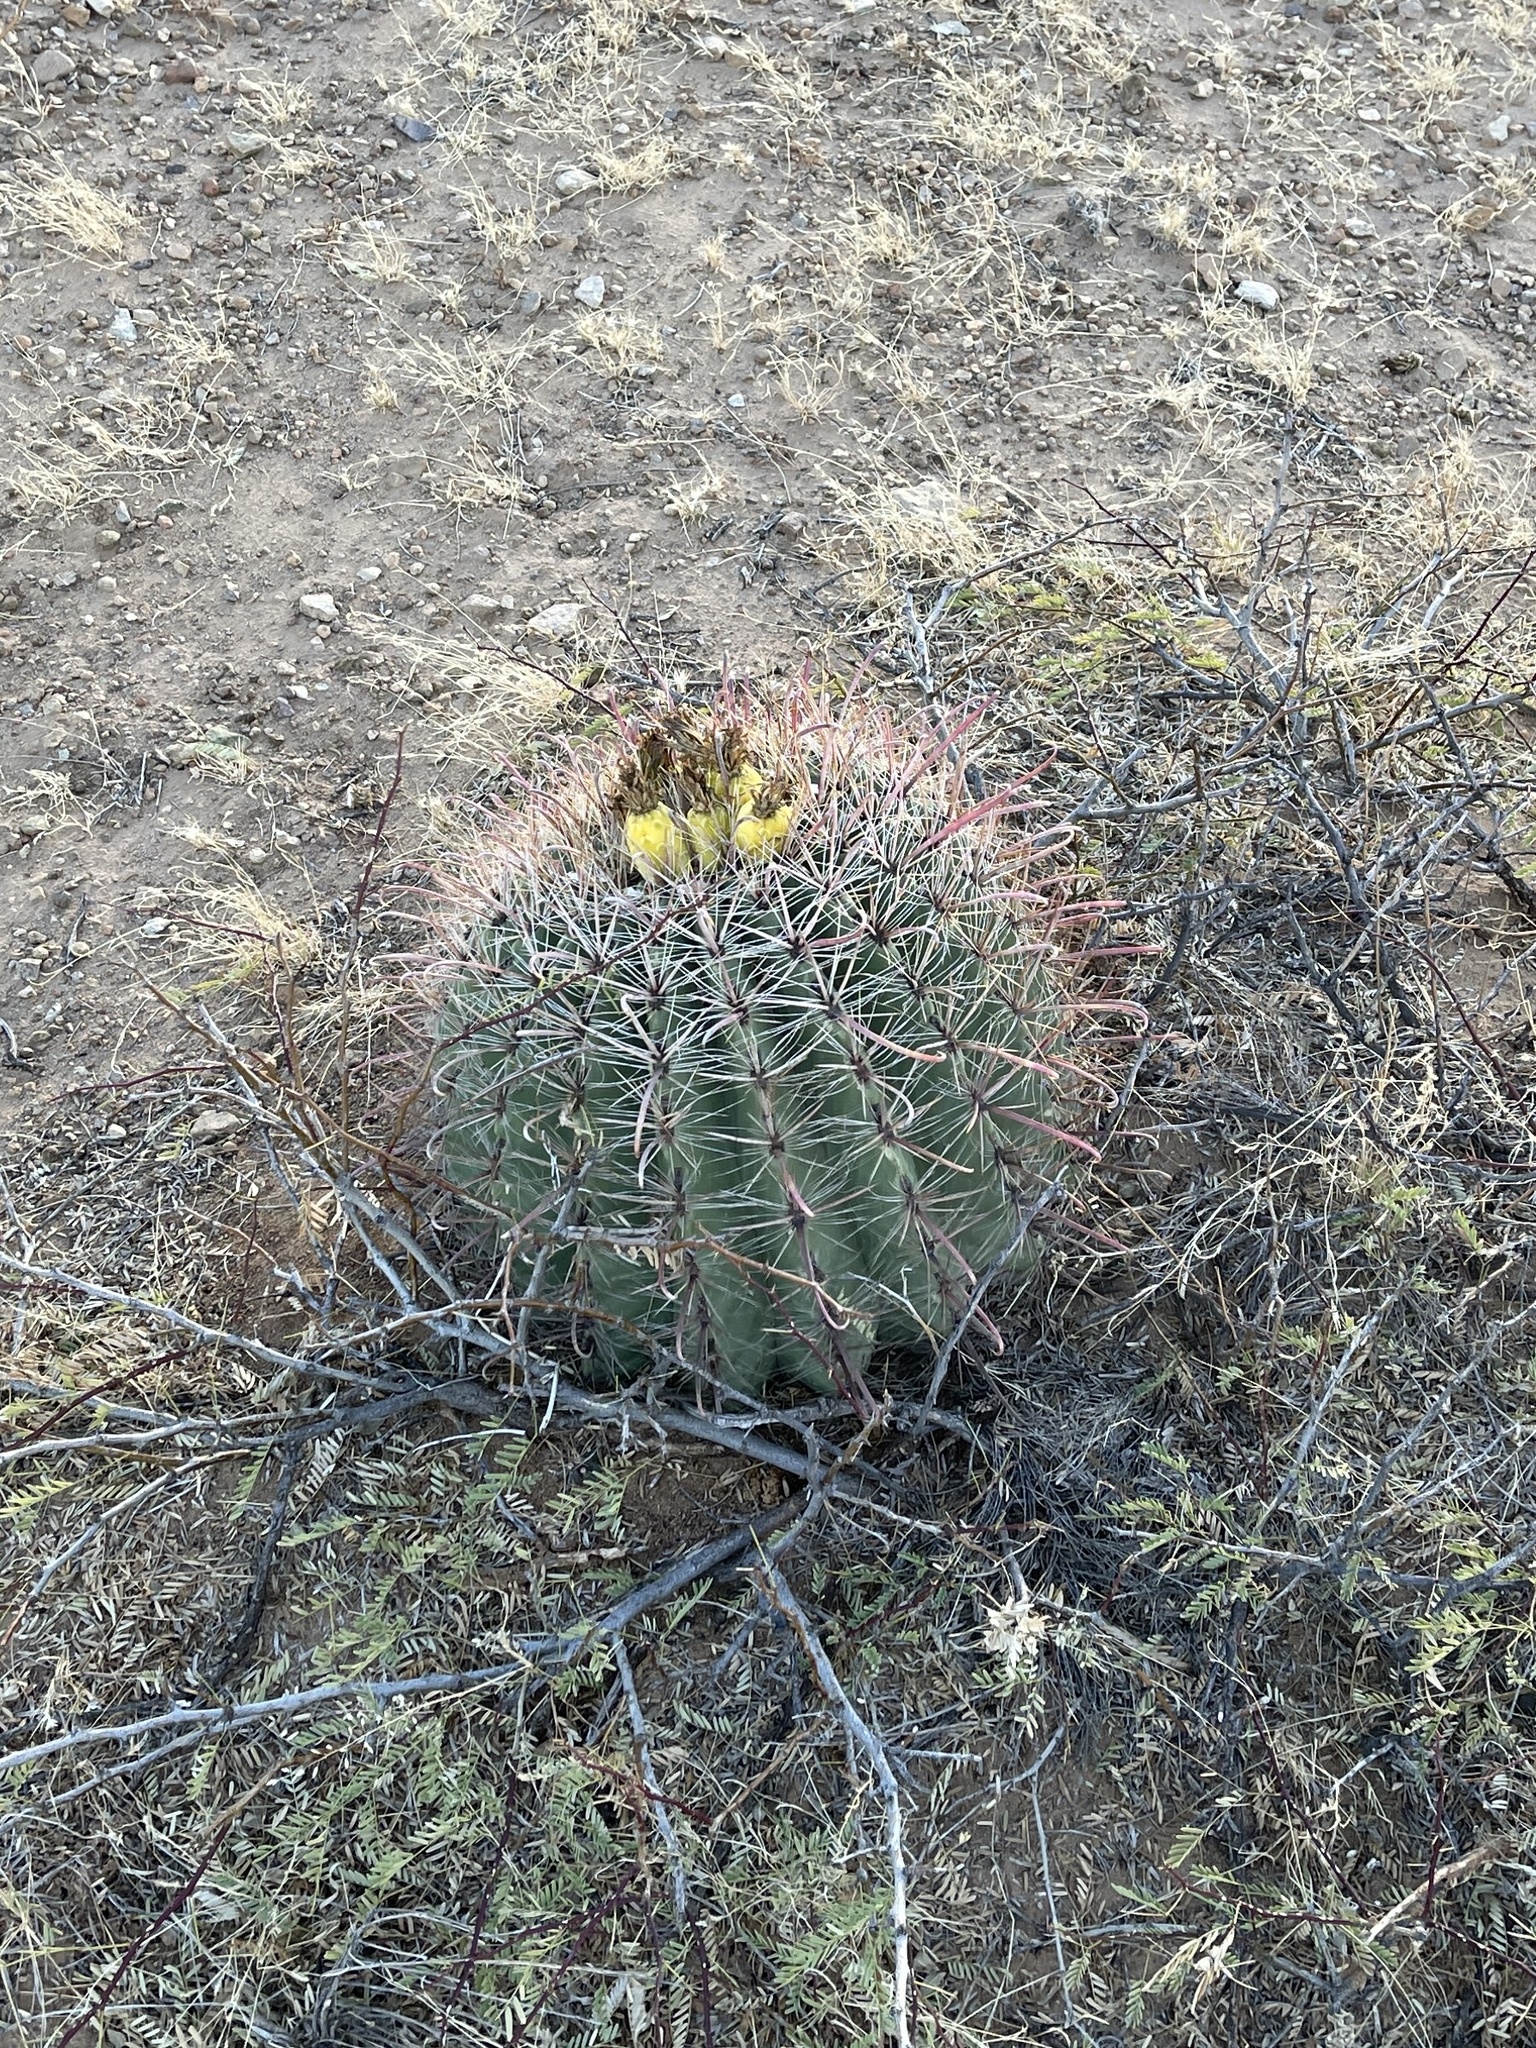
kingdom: Plantae
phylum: Tracheophyta
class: Magnoliopsida
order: Caryophyllales
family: Cactaceae
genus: Ferocactus
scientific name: Ferocactus wislizeni
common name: Candy barrel cactus
